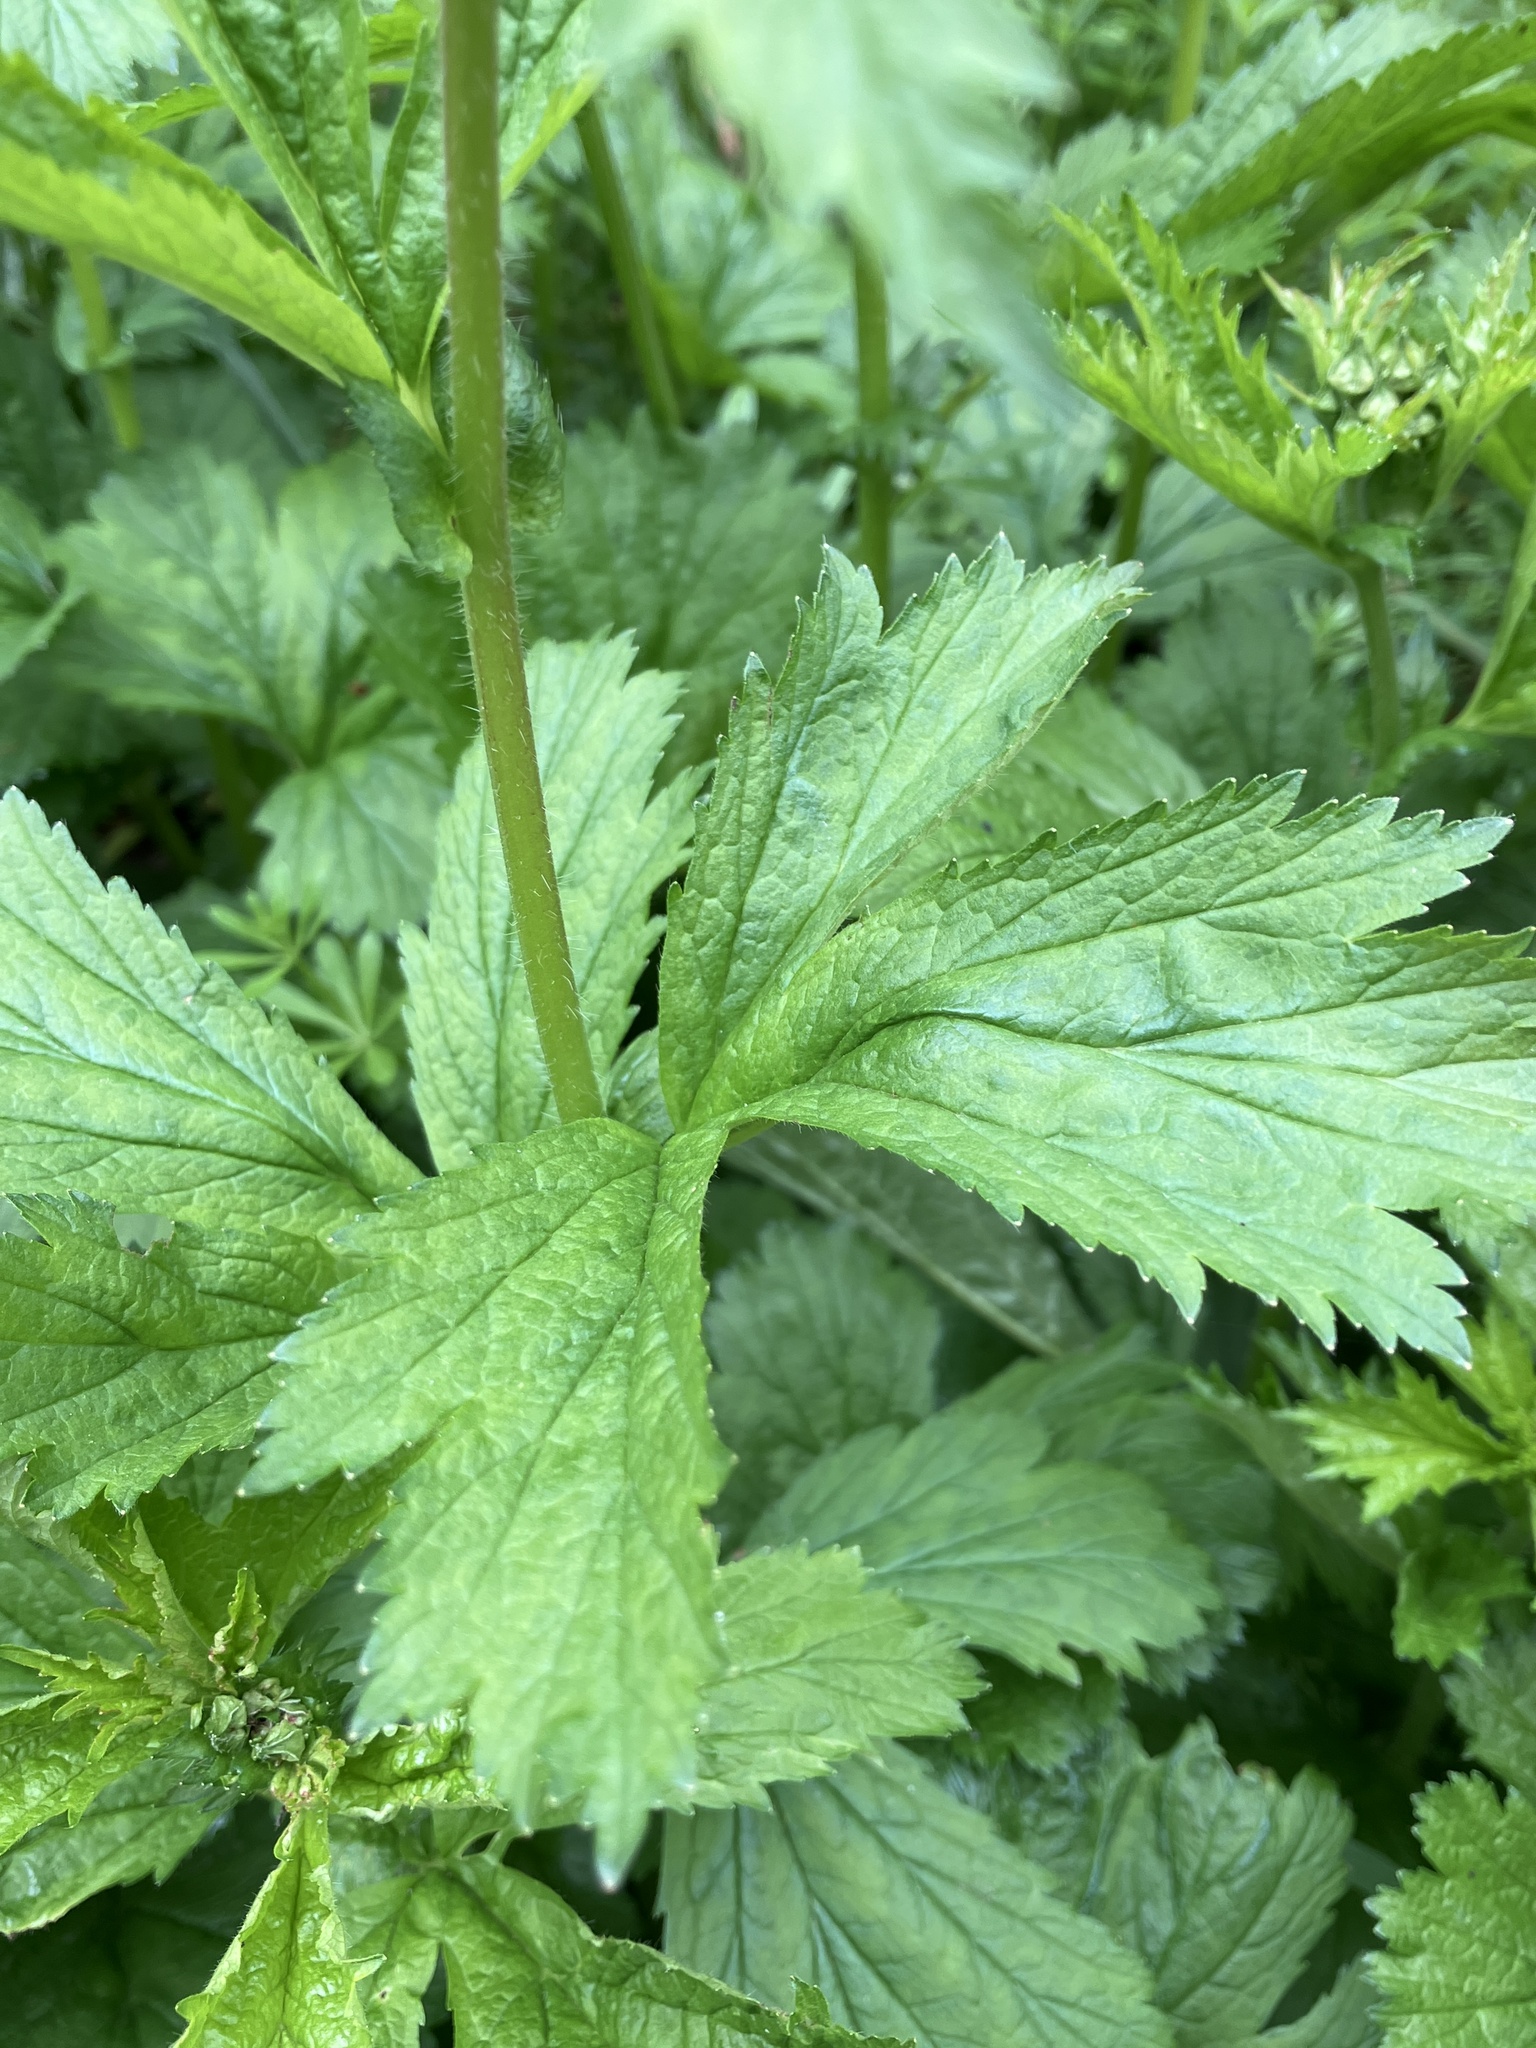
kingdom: Plantae
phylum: Tracheophyta
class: Magnoliopsida
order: Rosales
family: Rosaceae
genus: Geum
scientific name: Geum macrophyllum
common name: Large-leaved avens
